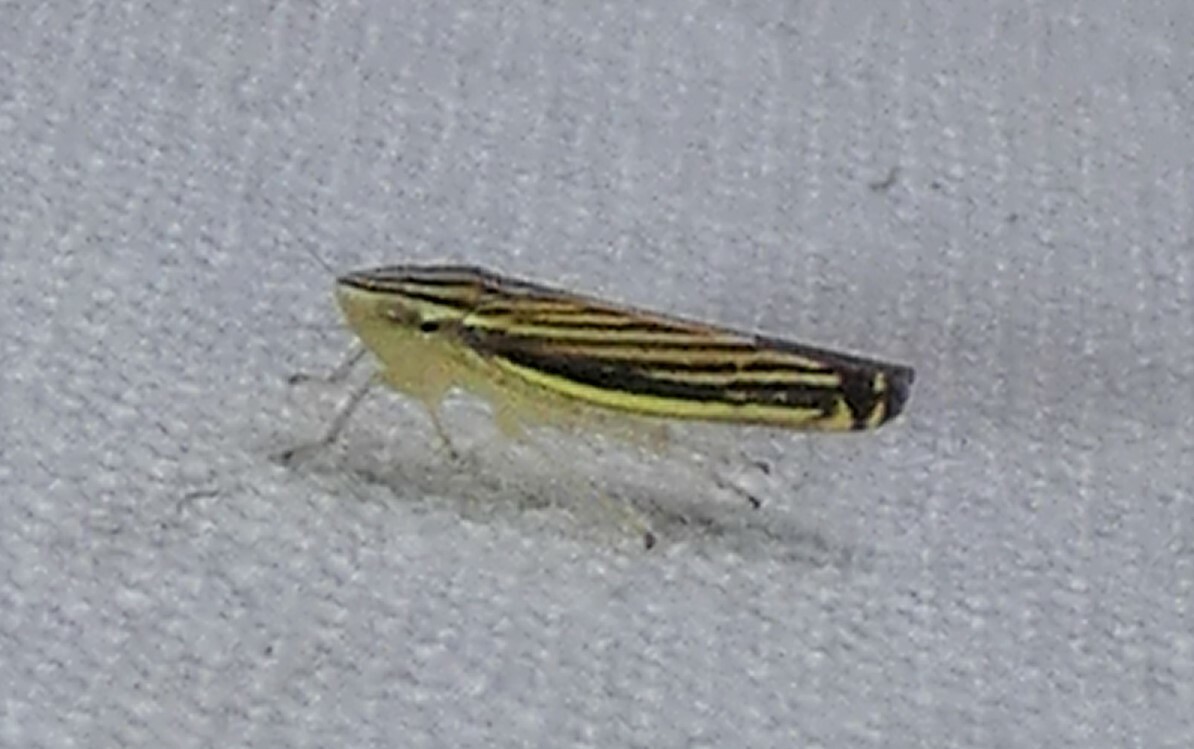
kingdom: Animalia
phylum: Arthropoda
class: Insecta
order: Hemiptera
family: Cicadellidae
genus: Sibovia
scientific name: Sibovia occatoria
